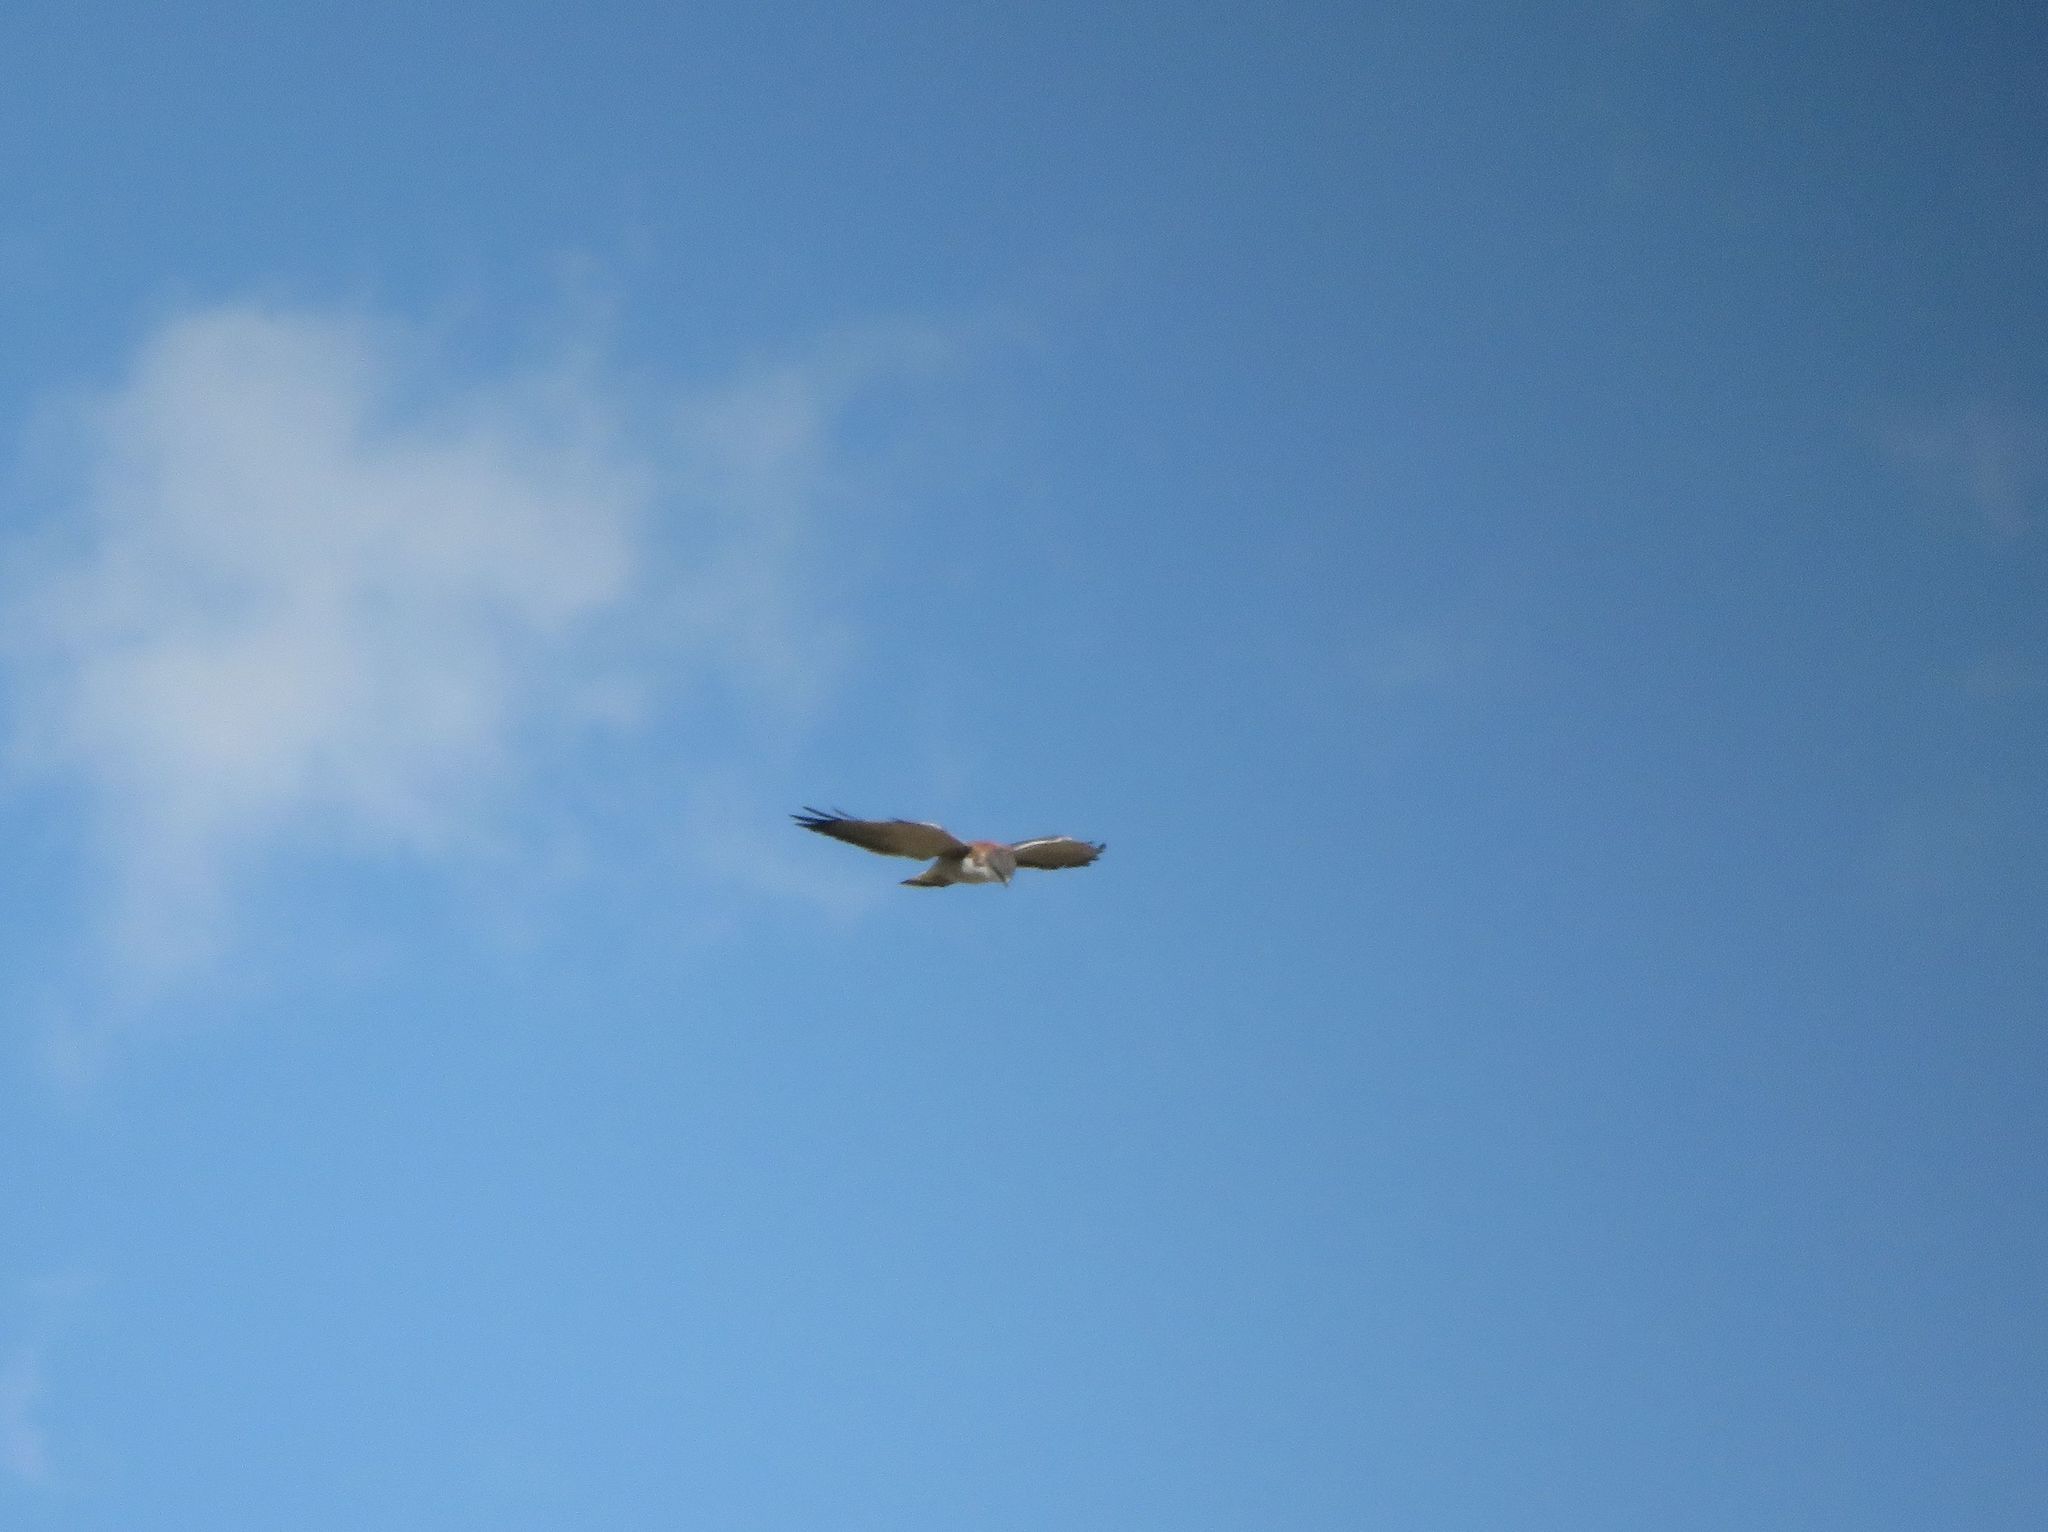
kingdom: Animalia
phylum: Chordata
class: Aves
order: Accipitriformes
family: Accipitridae
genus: Buteo
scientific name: Buteo polyosoma
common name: Variable hawk
